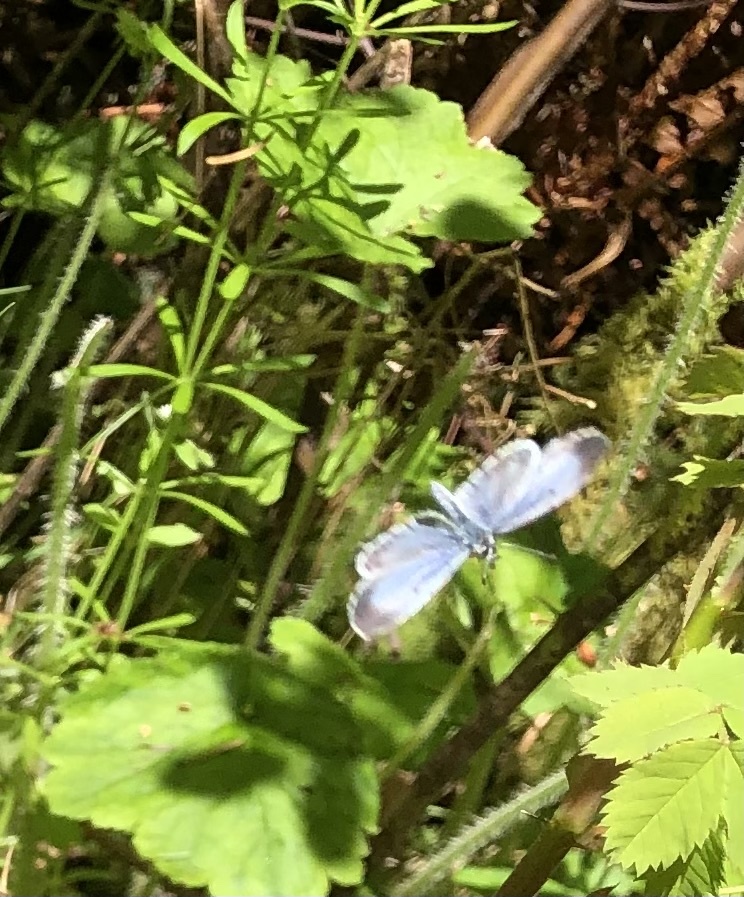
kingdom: Animalia
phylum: Arthropoda
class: Insecta
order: Lepidoptera
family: Lycaenidae
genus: Celastrina
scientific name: Celastrina ladon
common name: Spring azure
